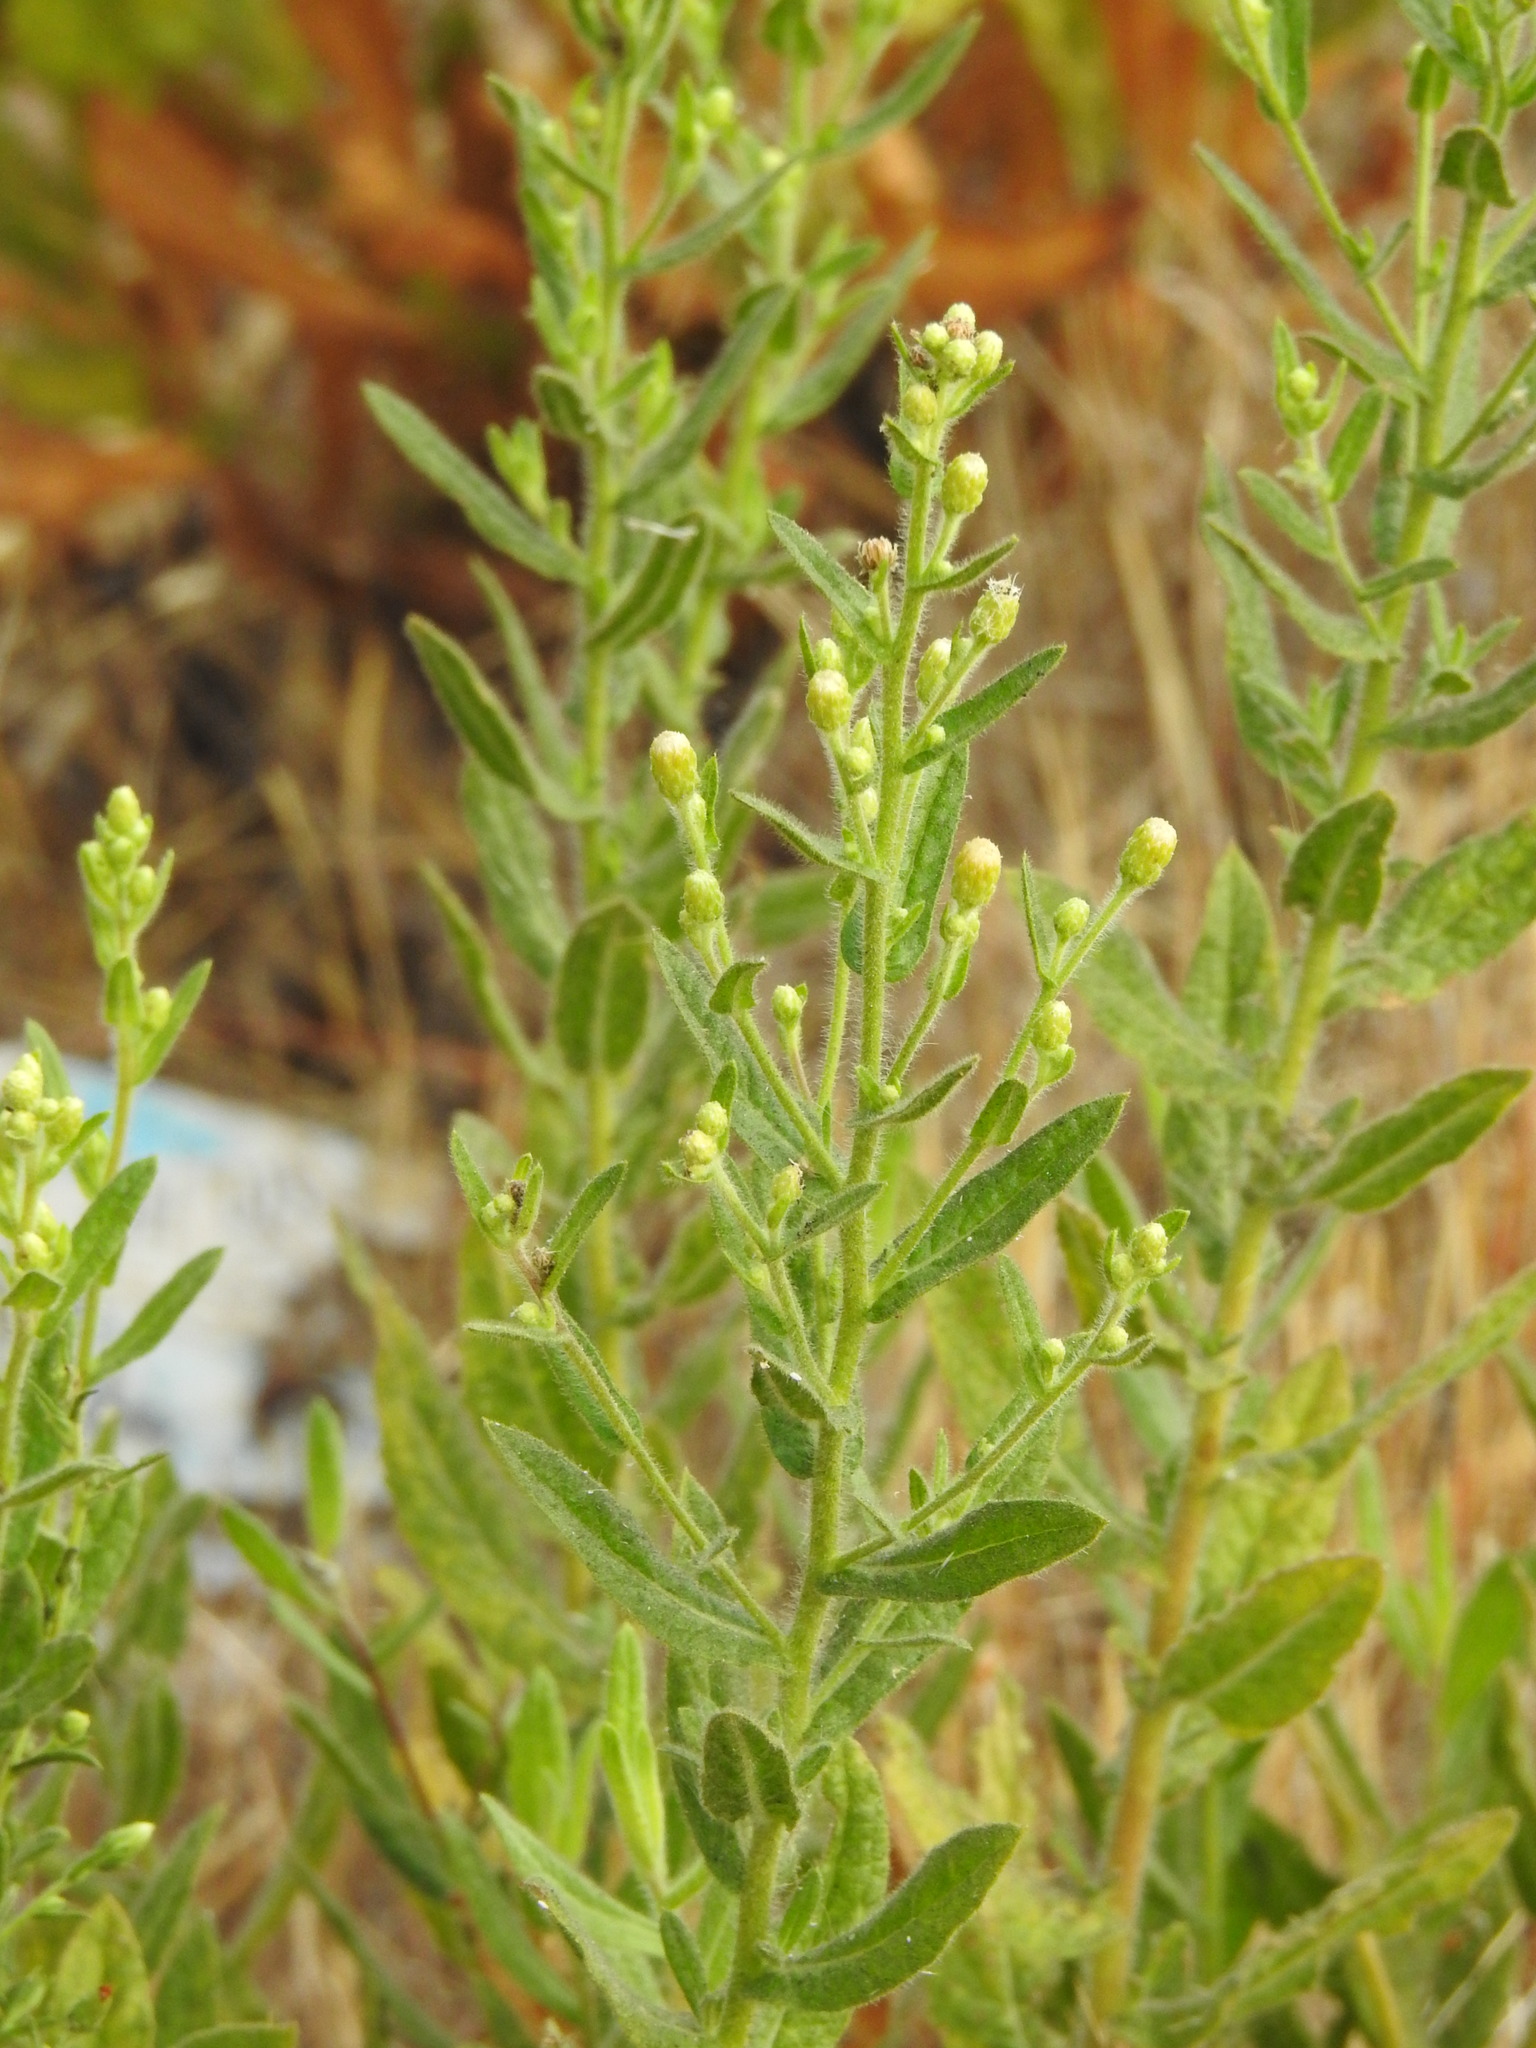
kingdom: Plantae
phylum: Tracheophyta
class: Magnoliopsida
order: Asterales
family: Asteraceae
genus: Dittrichia
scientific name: Dittrichia viscosa
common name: Woody fleabane
